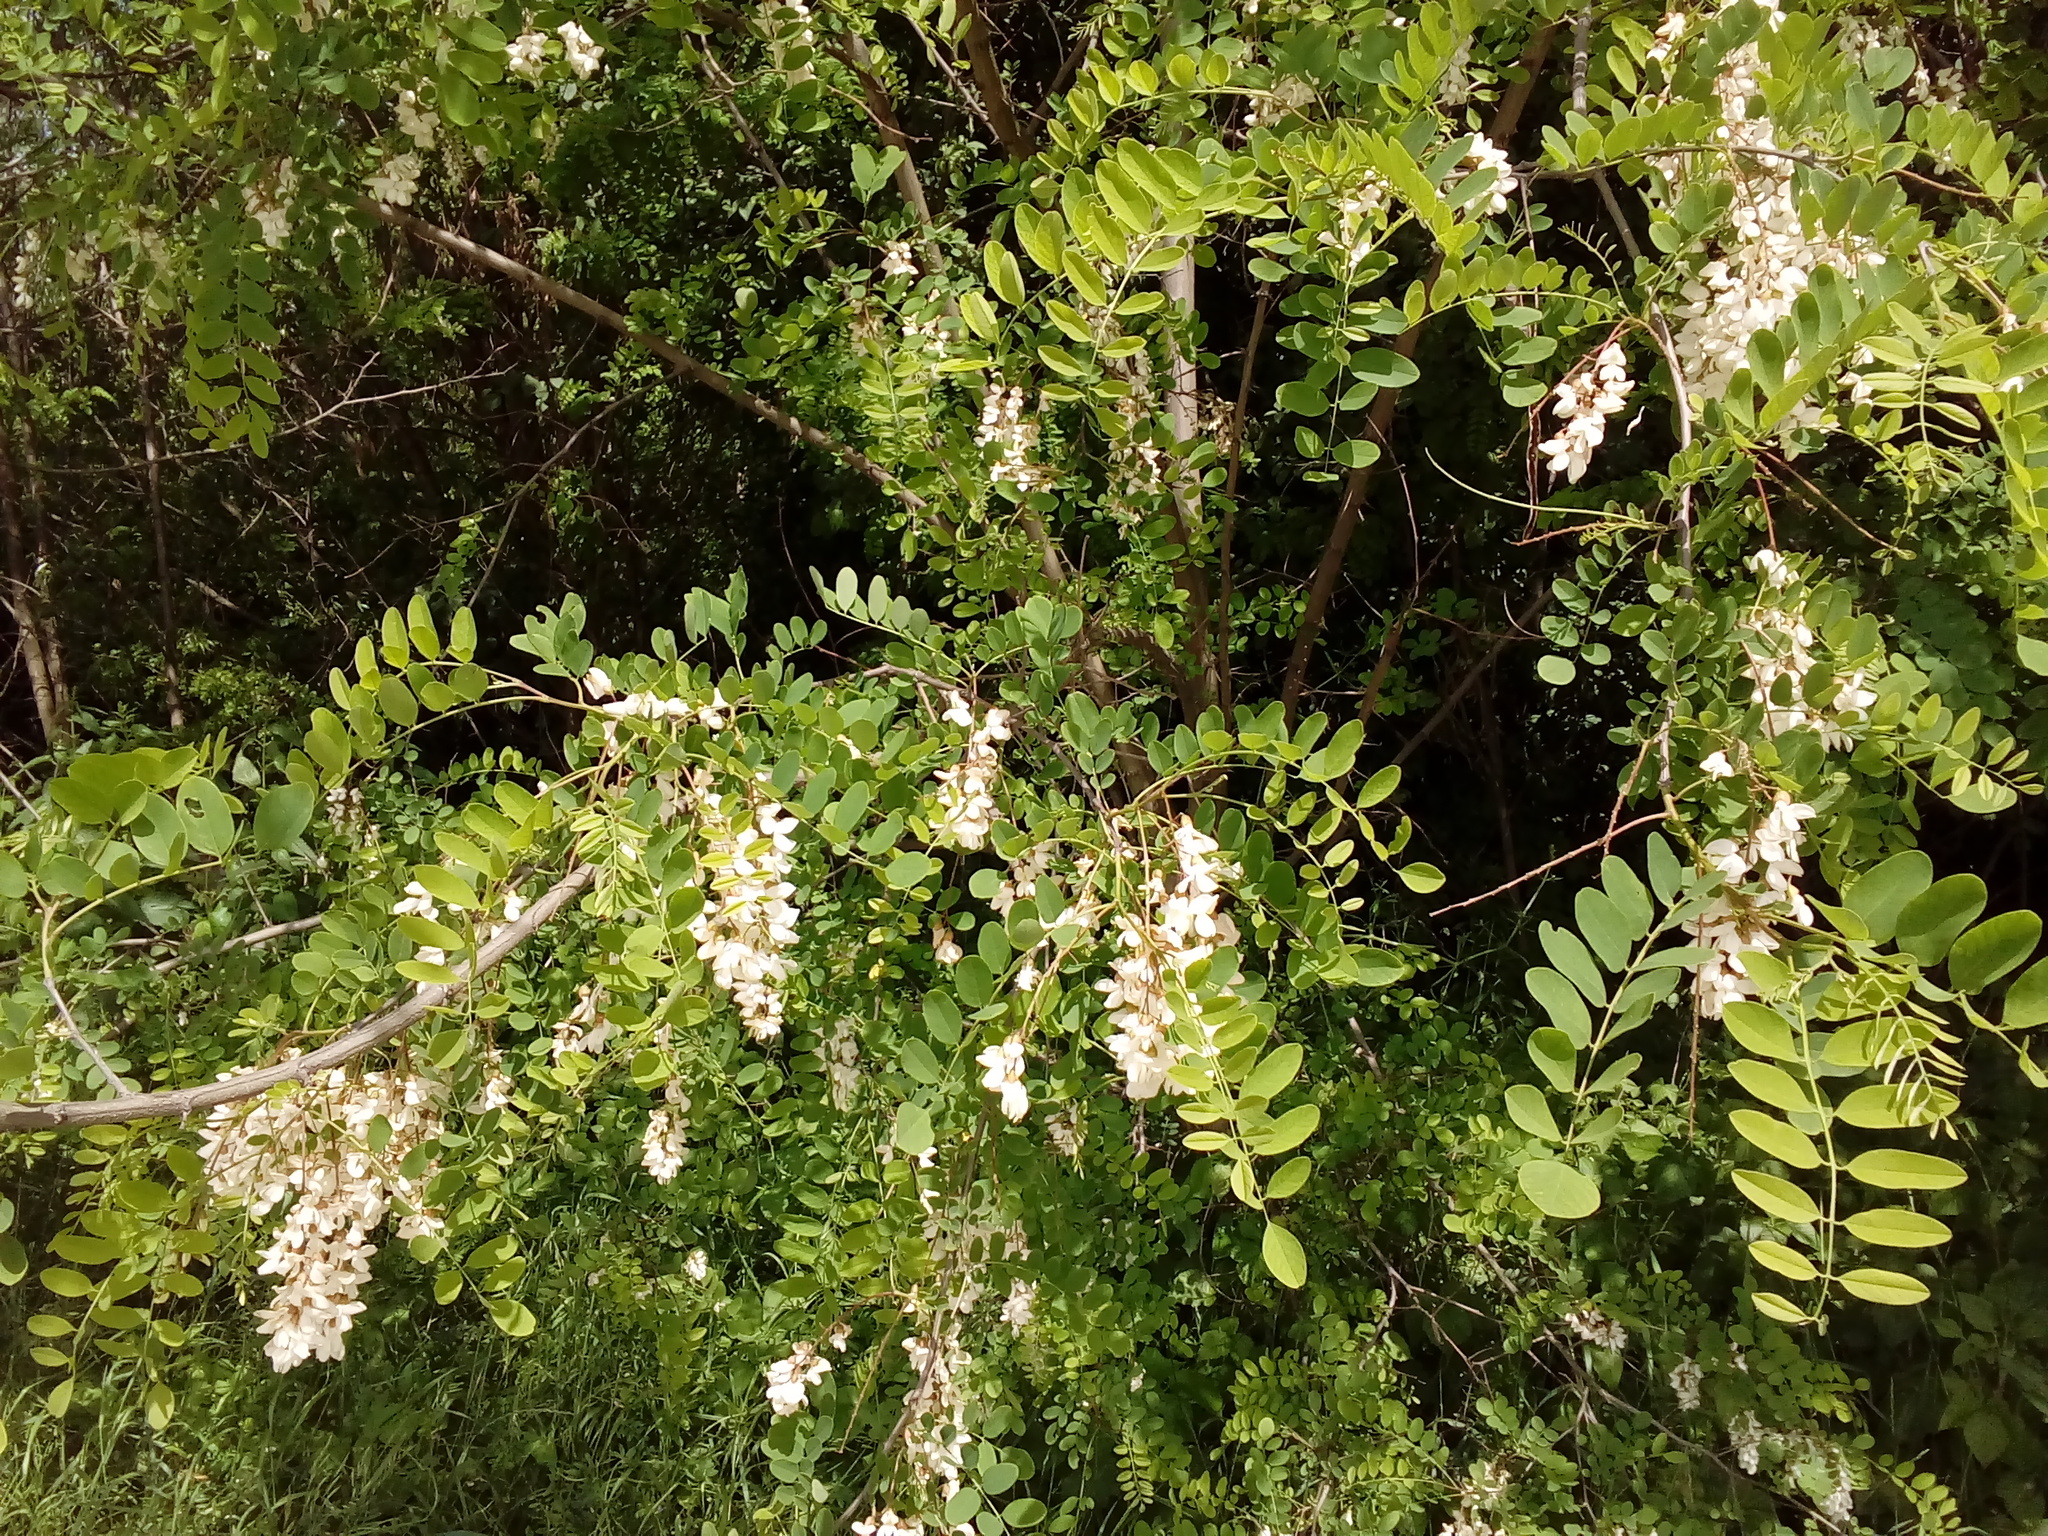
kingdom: Plantae
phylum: Tracheophyta
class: Magnoliopsida
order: Fabales
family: Fabaceae
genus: Robinia
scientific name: Robinia pseudoacacia
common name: Black locust
